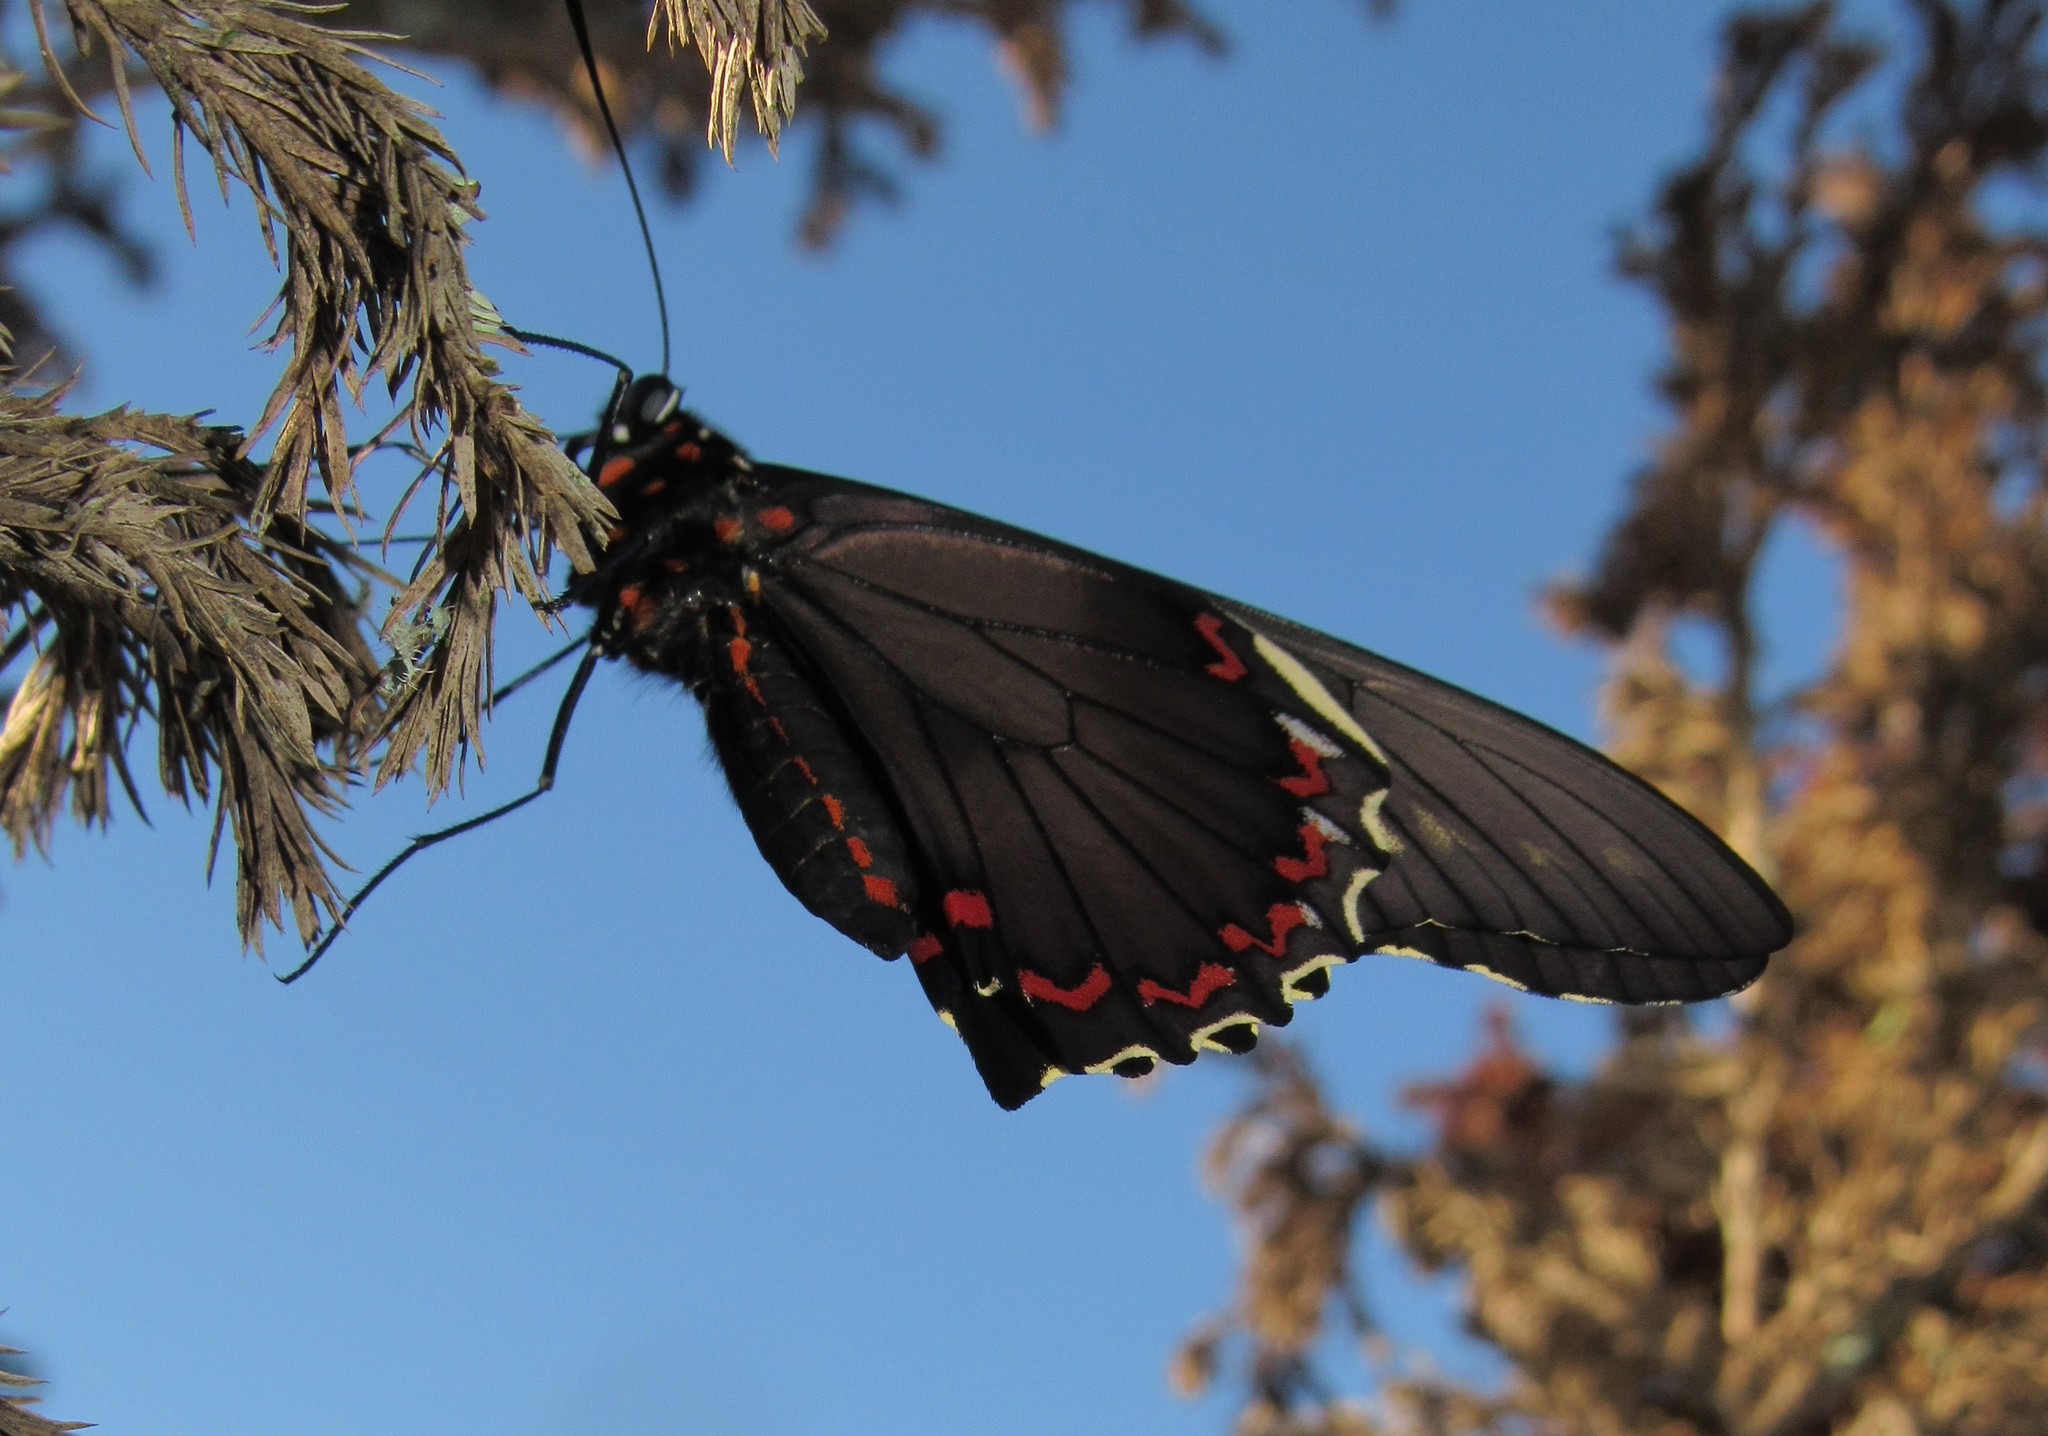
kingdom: Animalia
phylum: Arthropoda
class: Insecta
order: Lepidoptera
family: Papilionidae
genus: Battus
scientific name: Battus polydamas
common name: Polydamas swallowtail
